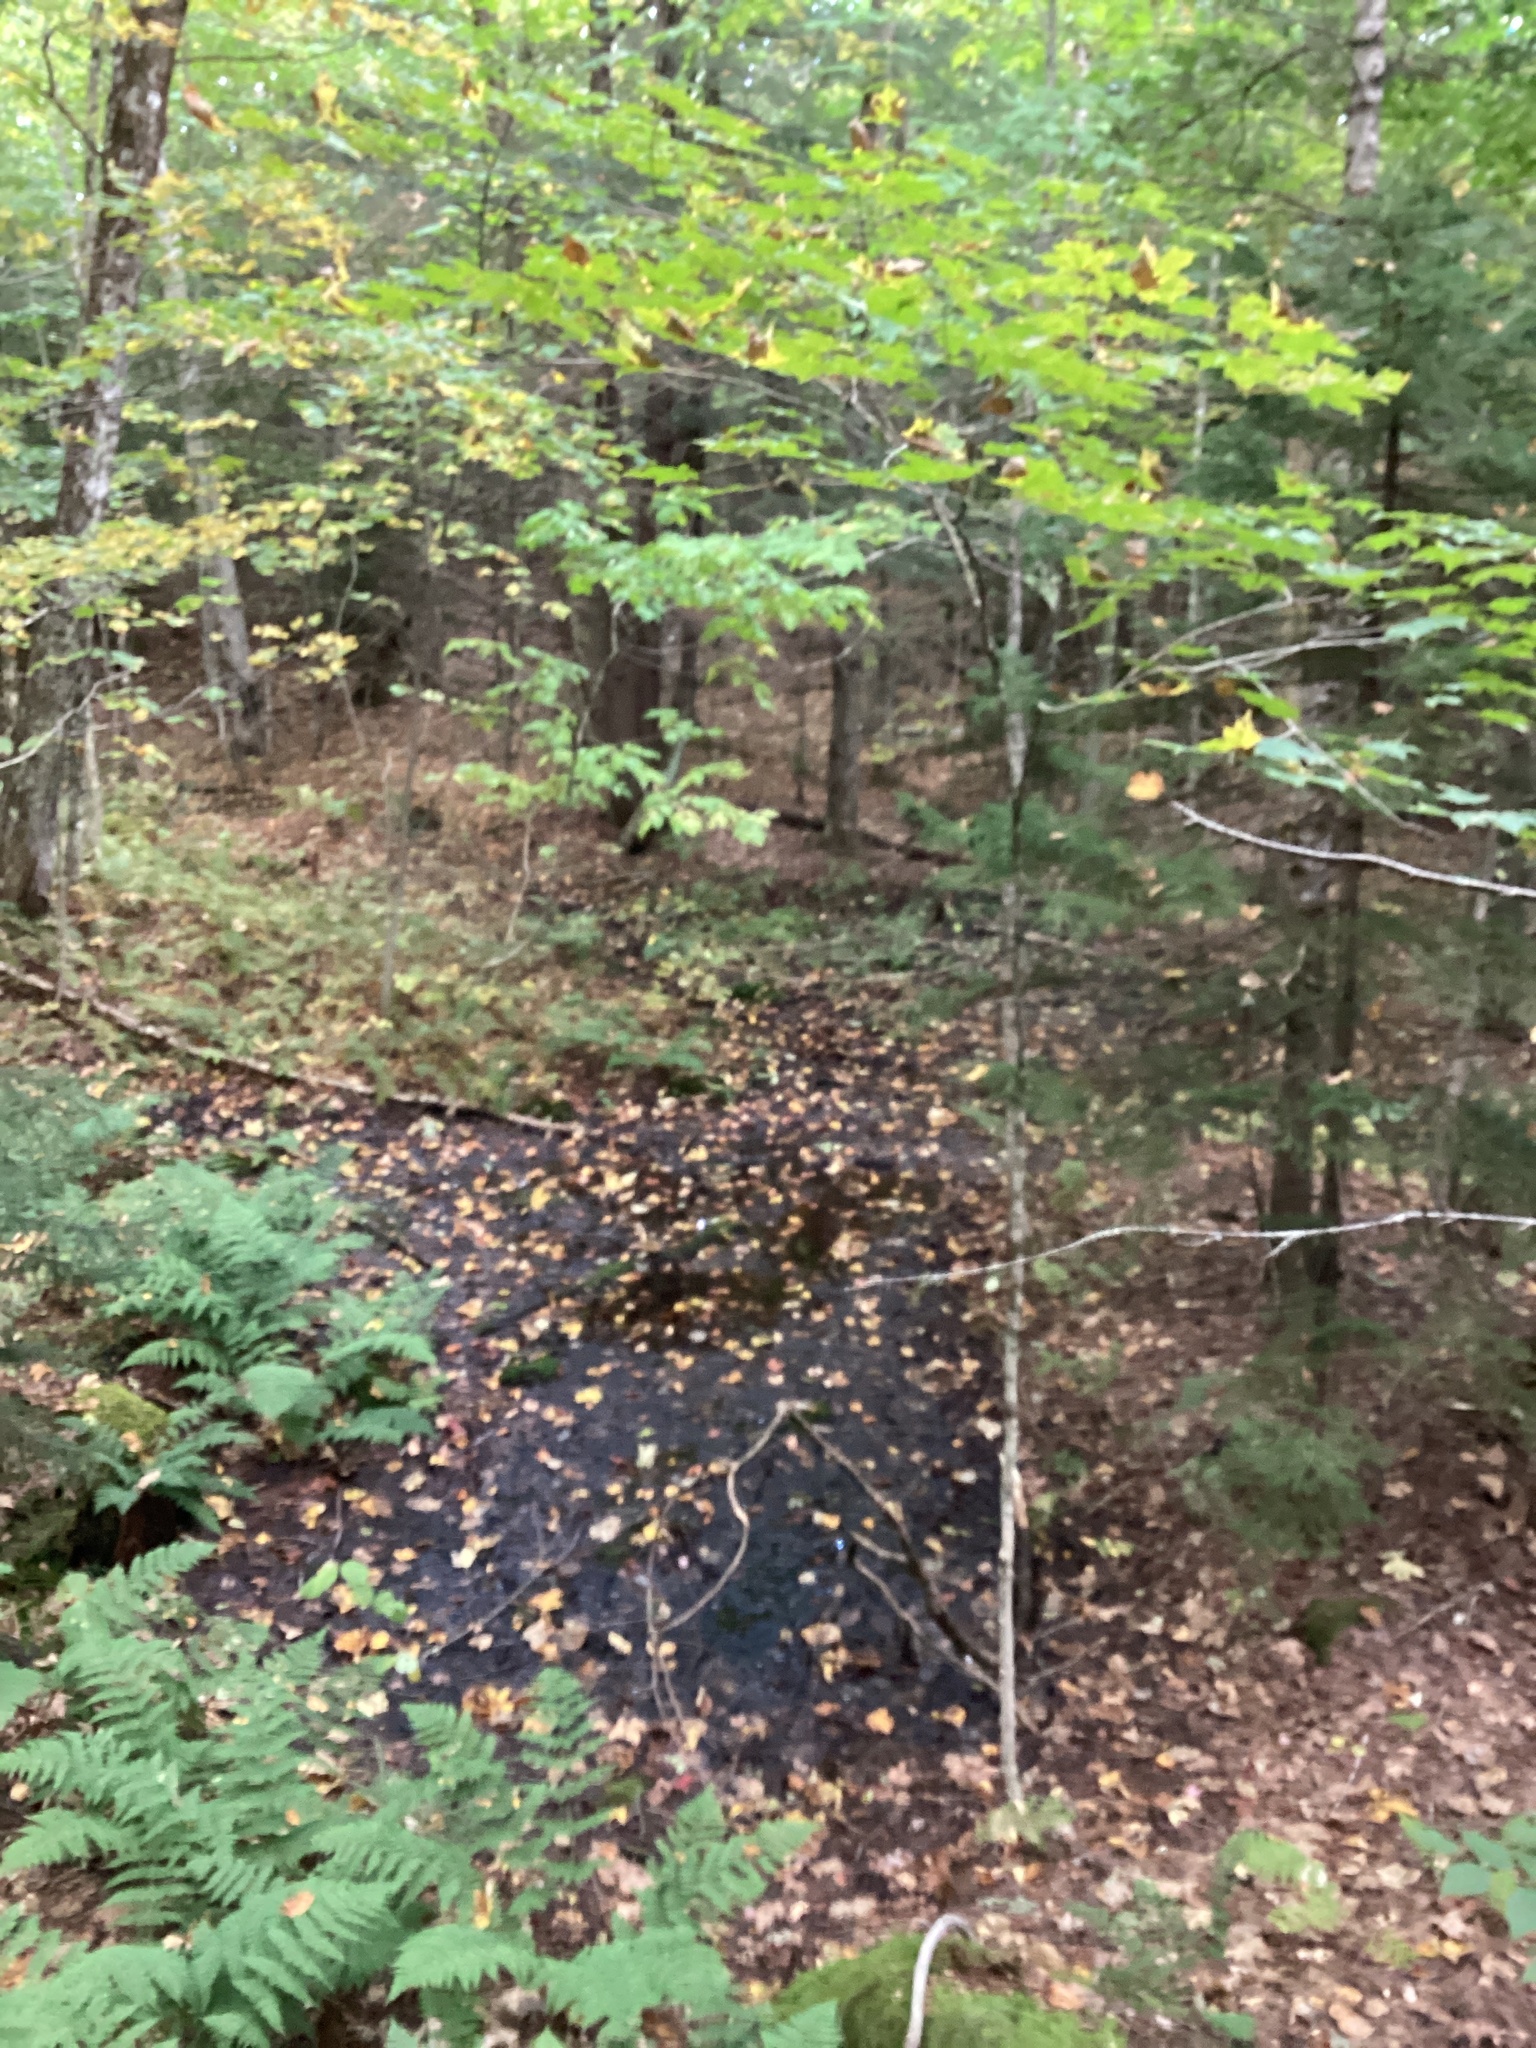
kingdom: Plantae
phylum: Tracheophyta
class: Magnoliopsida
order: Sapindales
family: Sapindaceae
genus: Acer
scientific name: Acer saccharum
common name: Sugar maple
